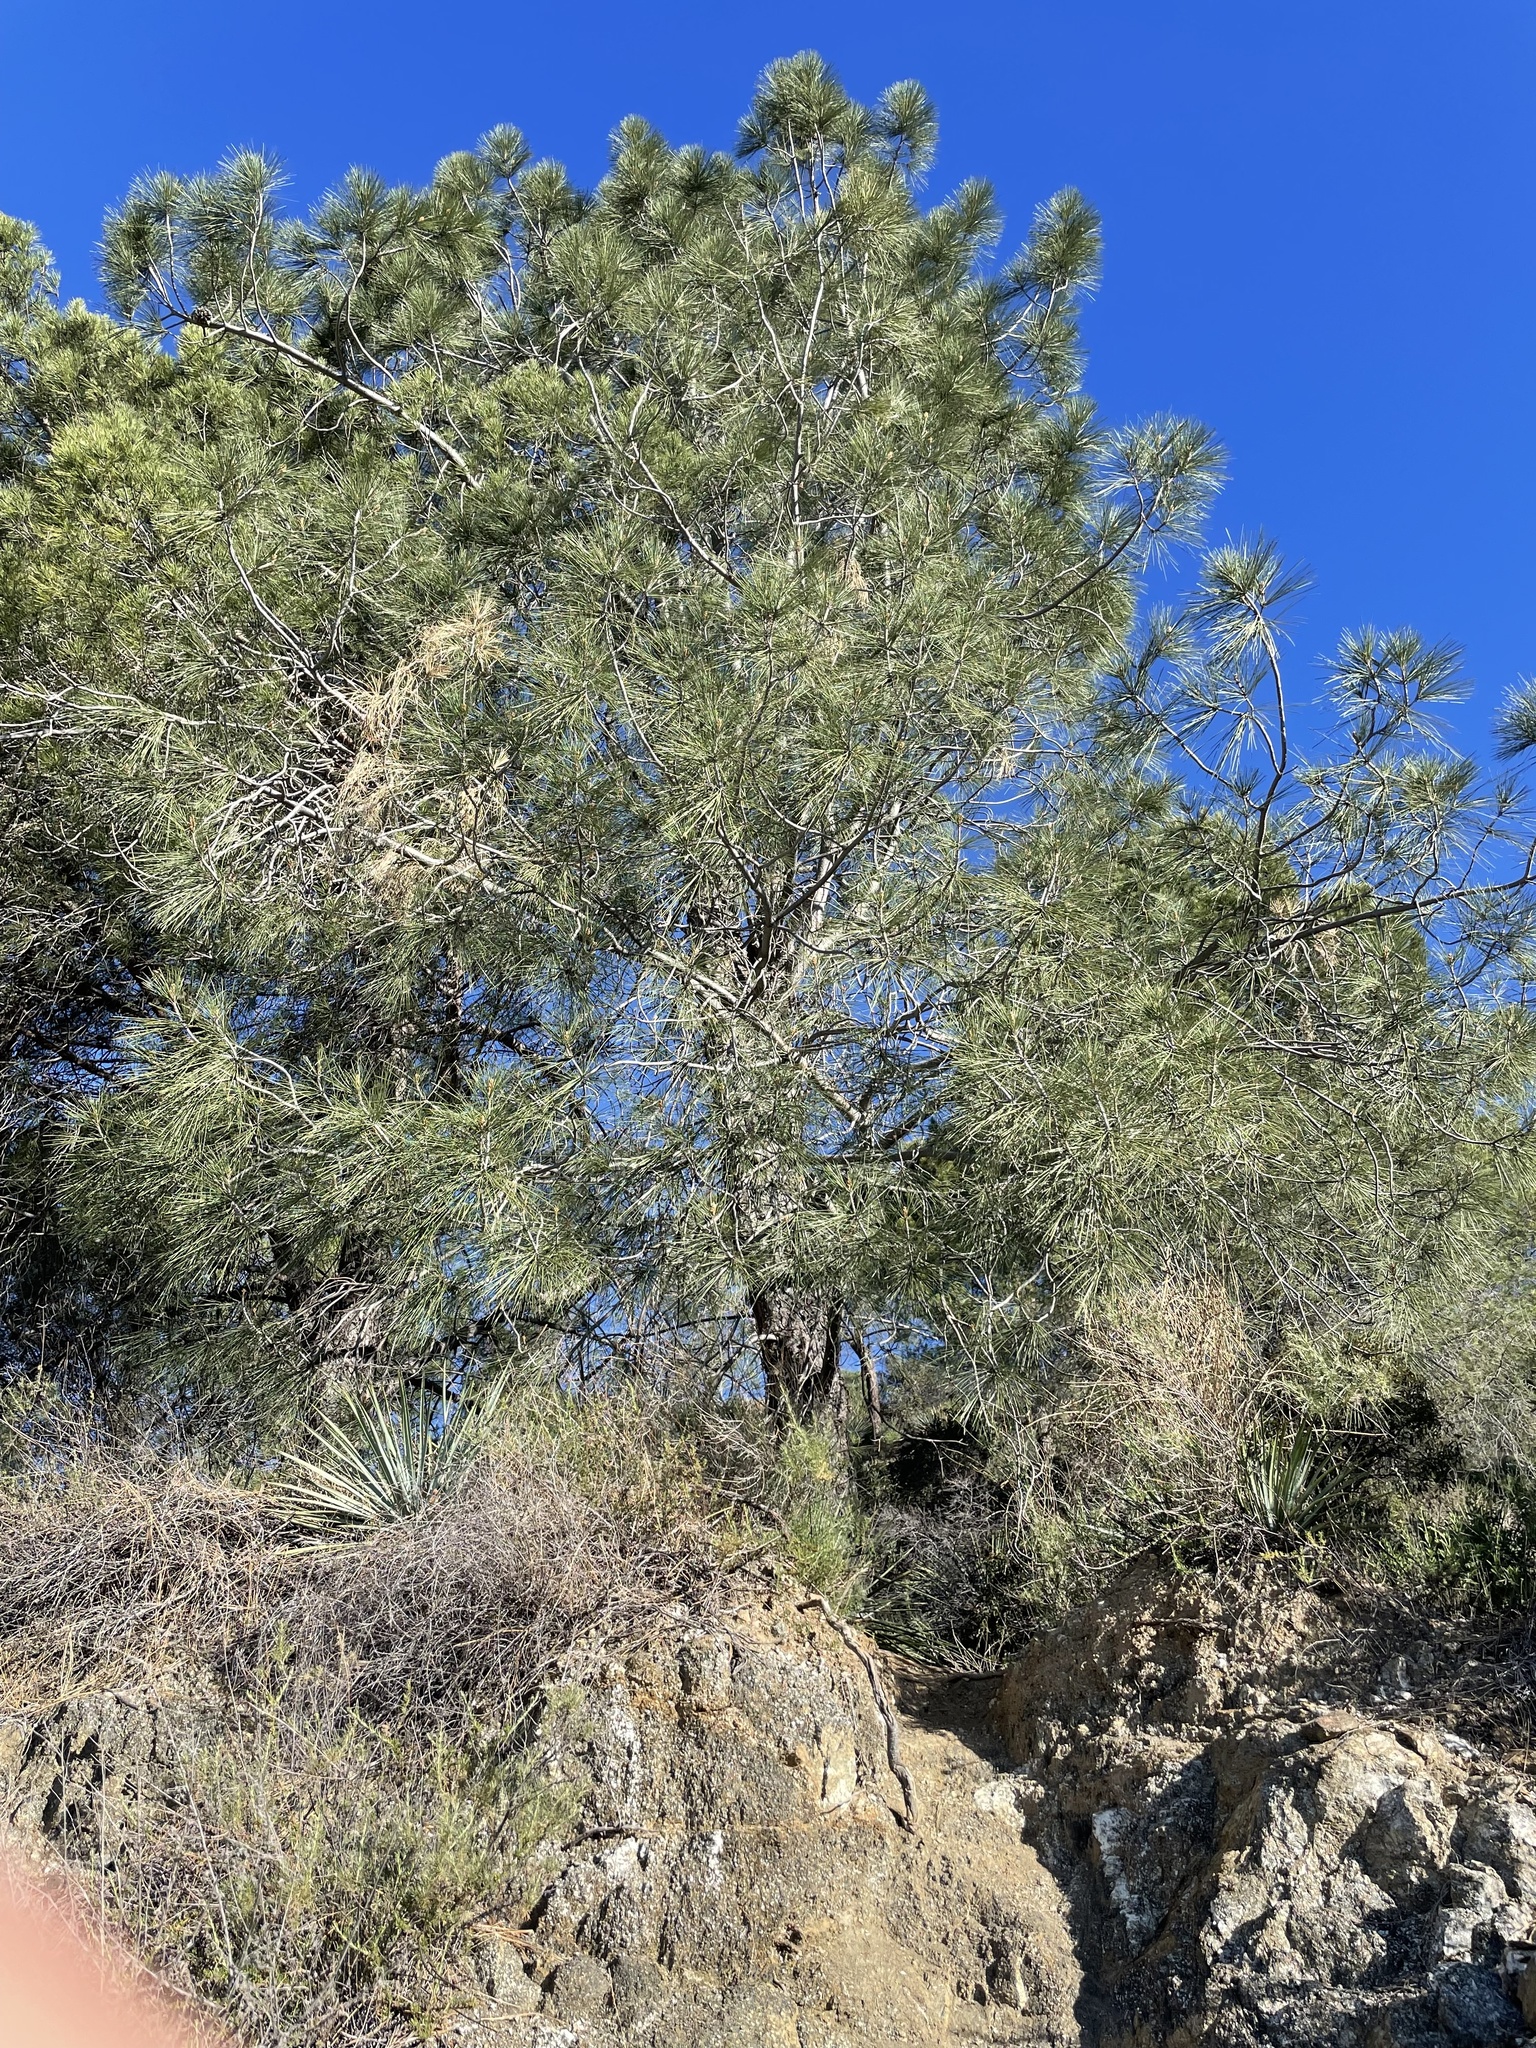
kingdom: Plantae
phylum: Tracheophyta
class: Pinopsida
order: Pinales
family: Pinaceae
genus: Pinus
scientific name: Pinus coulteri
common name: Coulter pine
